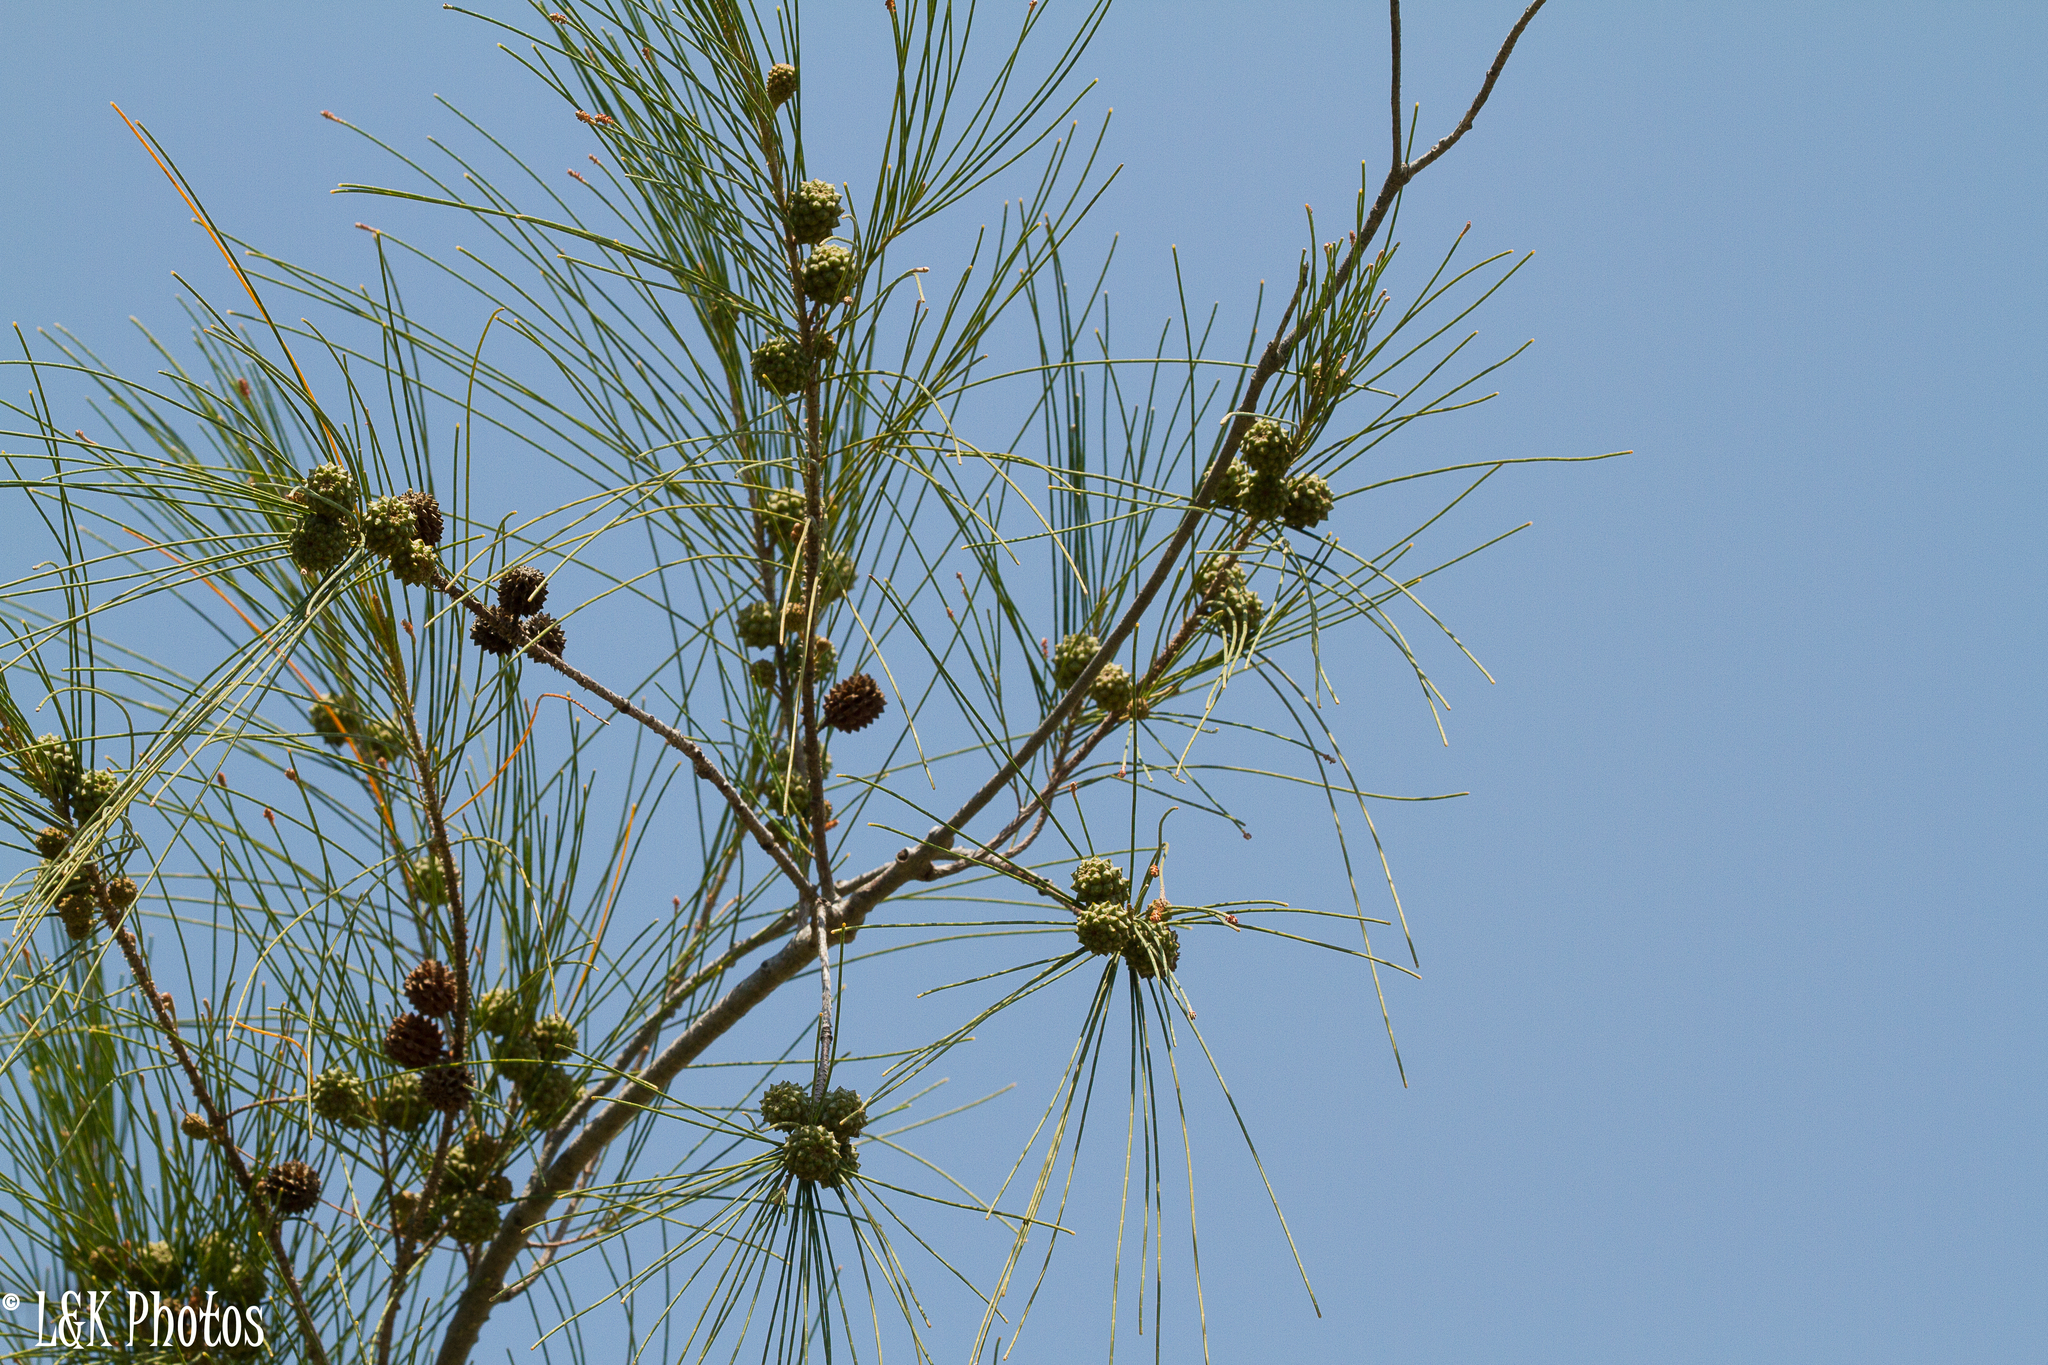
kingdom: Plantae
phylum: Tracheophyta
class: Magnoliopsida
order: Fagales
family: Casuarinaceae
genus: Casuarina
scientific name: Casuarina equisetifolia
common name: Beach sheoak
